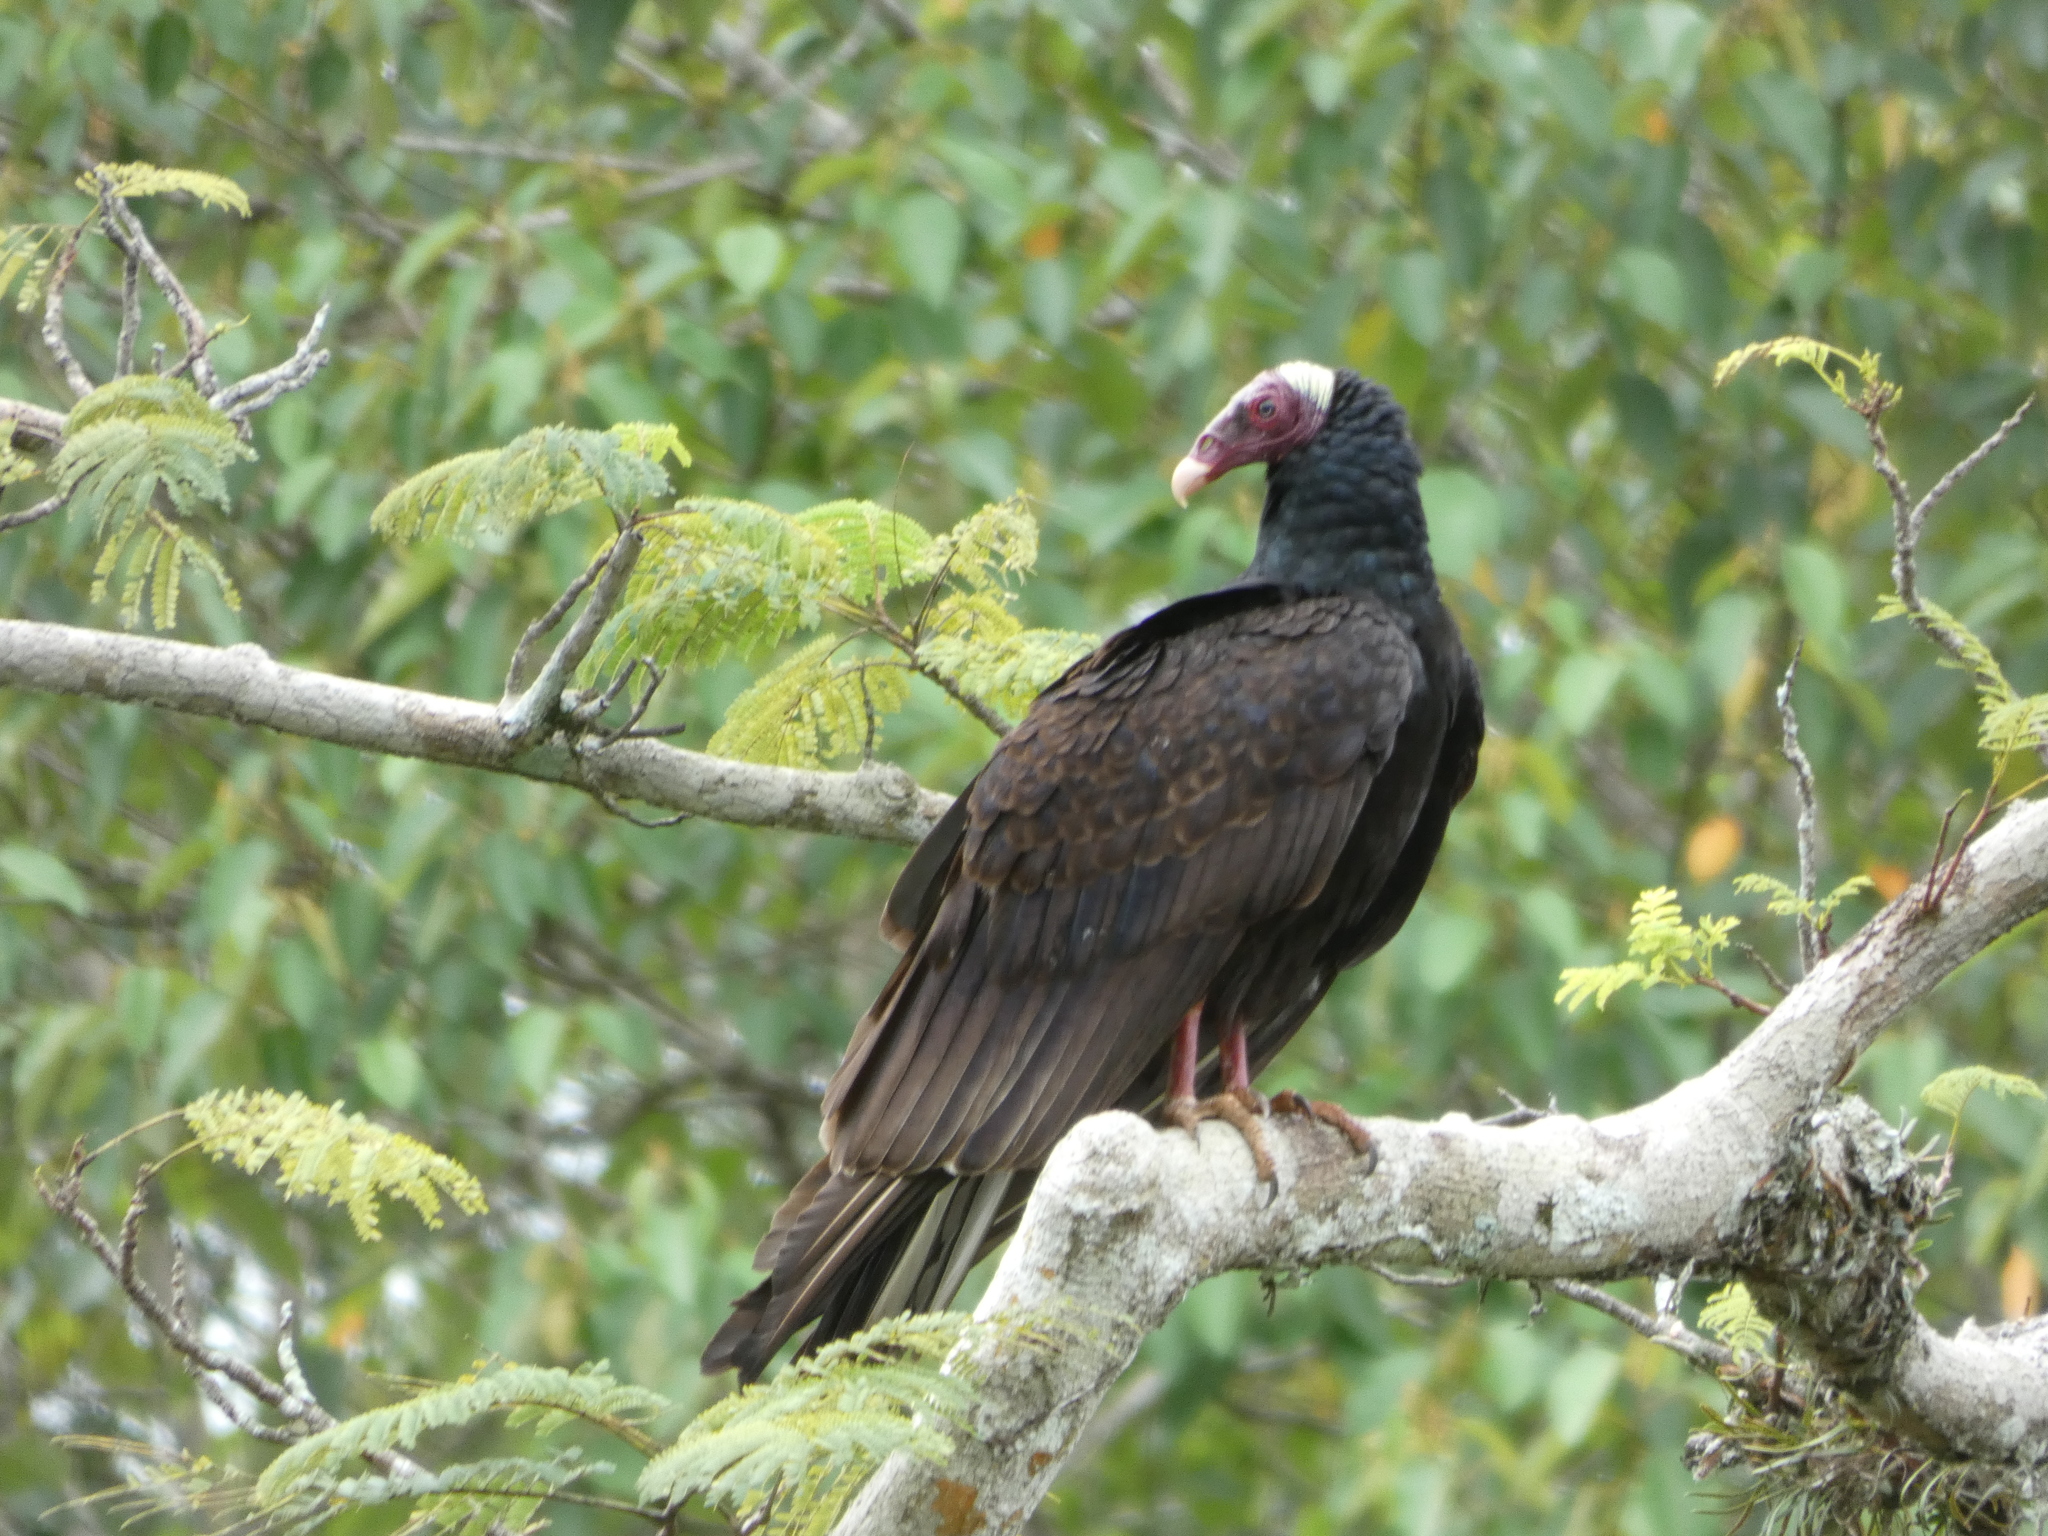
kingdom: Animalia
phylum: Chordata
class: Aves
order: Accipitriformes
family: Cathartidae
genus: Cathartes
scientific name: Cathartes aura
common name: Turkey vulture
